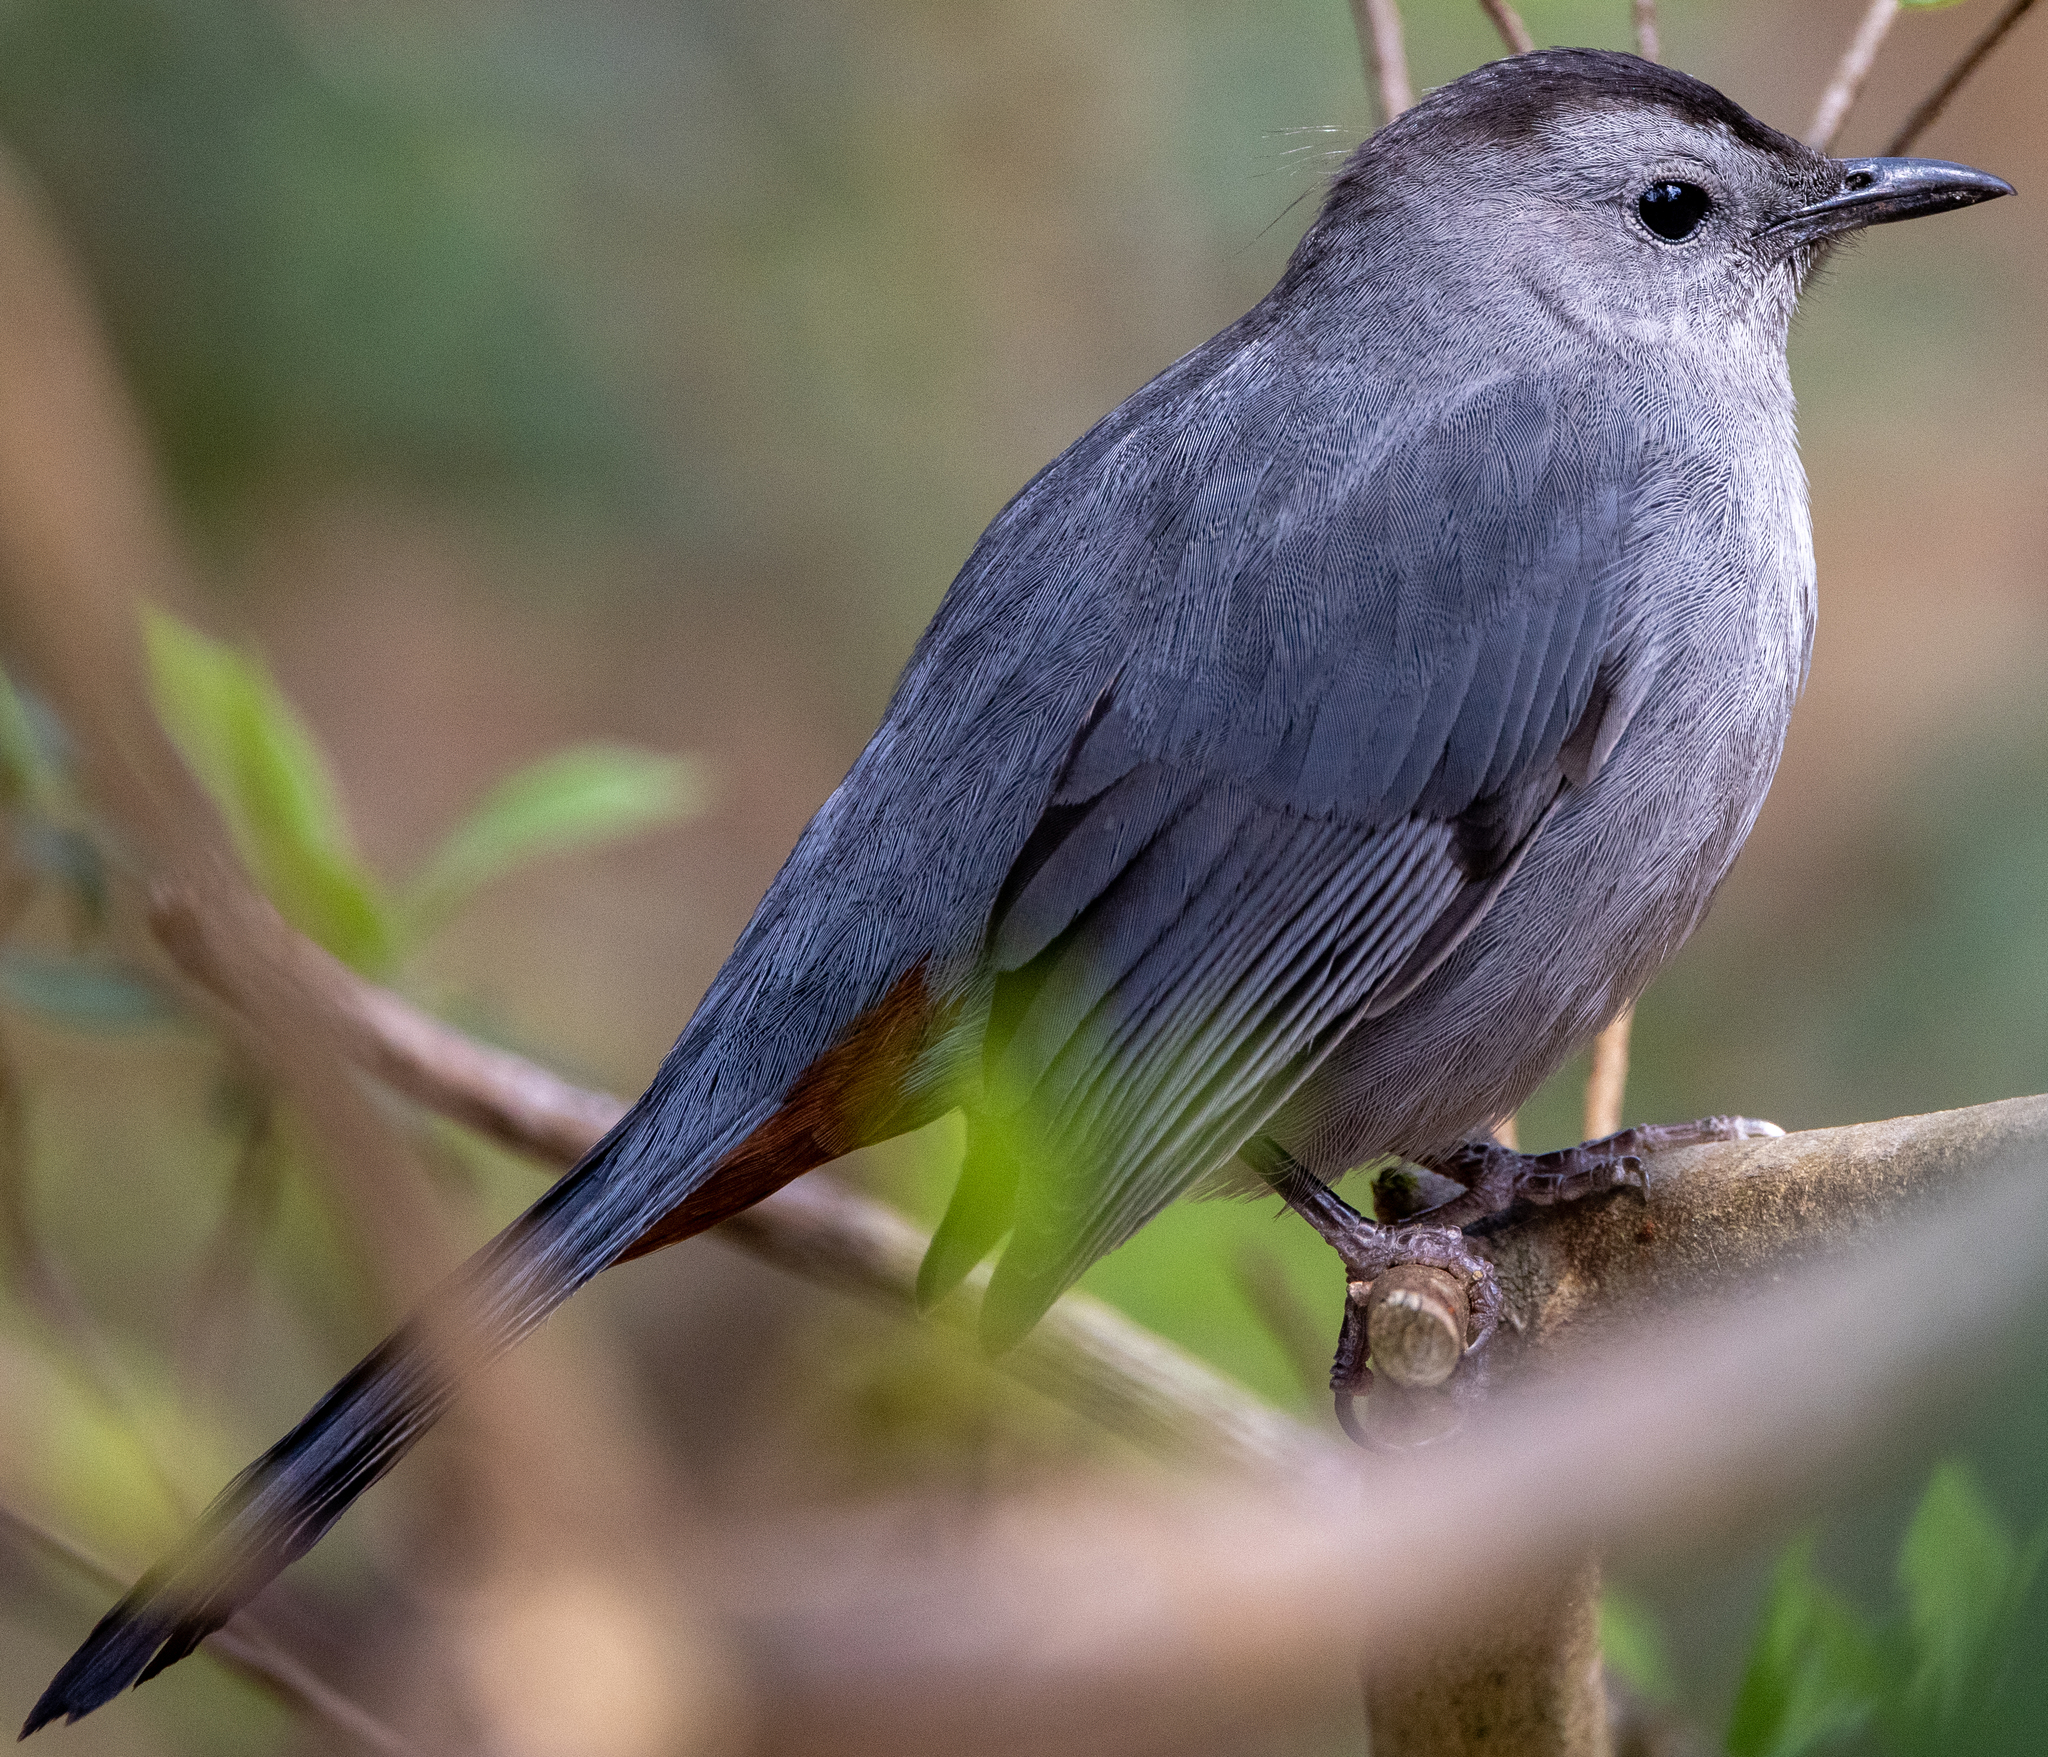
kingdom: Animalia
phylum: Chordata
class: Aves
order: Passeriformes
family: Mimidae
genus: Dumetella
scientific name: Dumetella carolinensis
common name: Gray catbird
